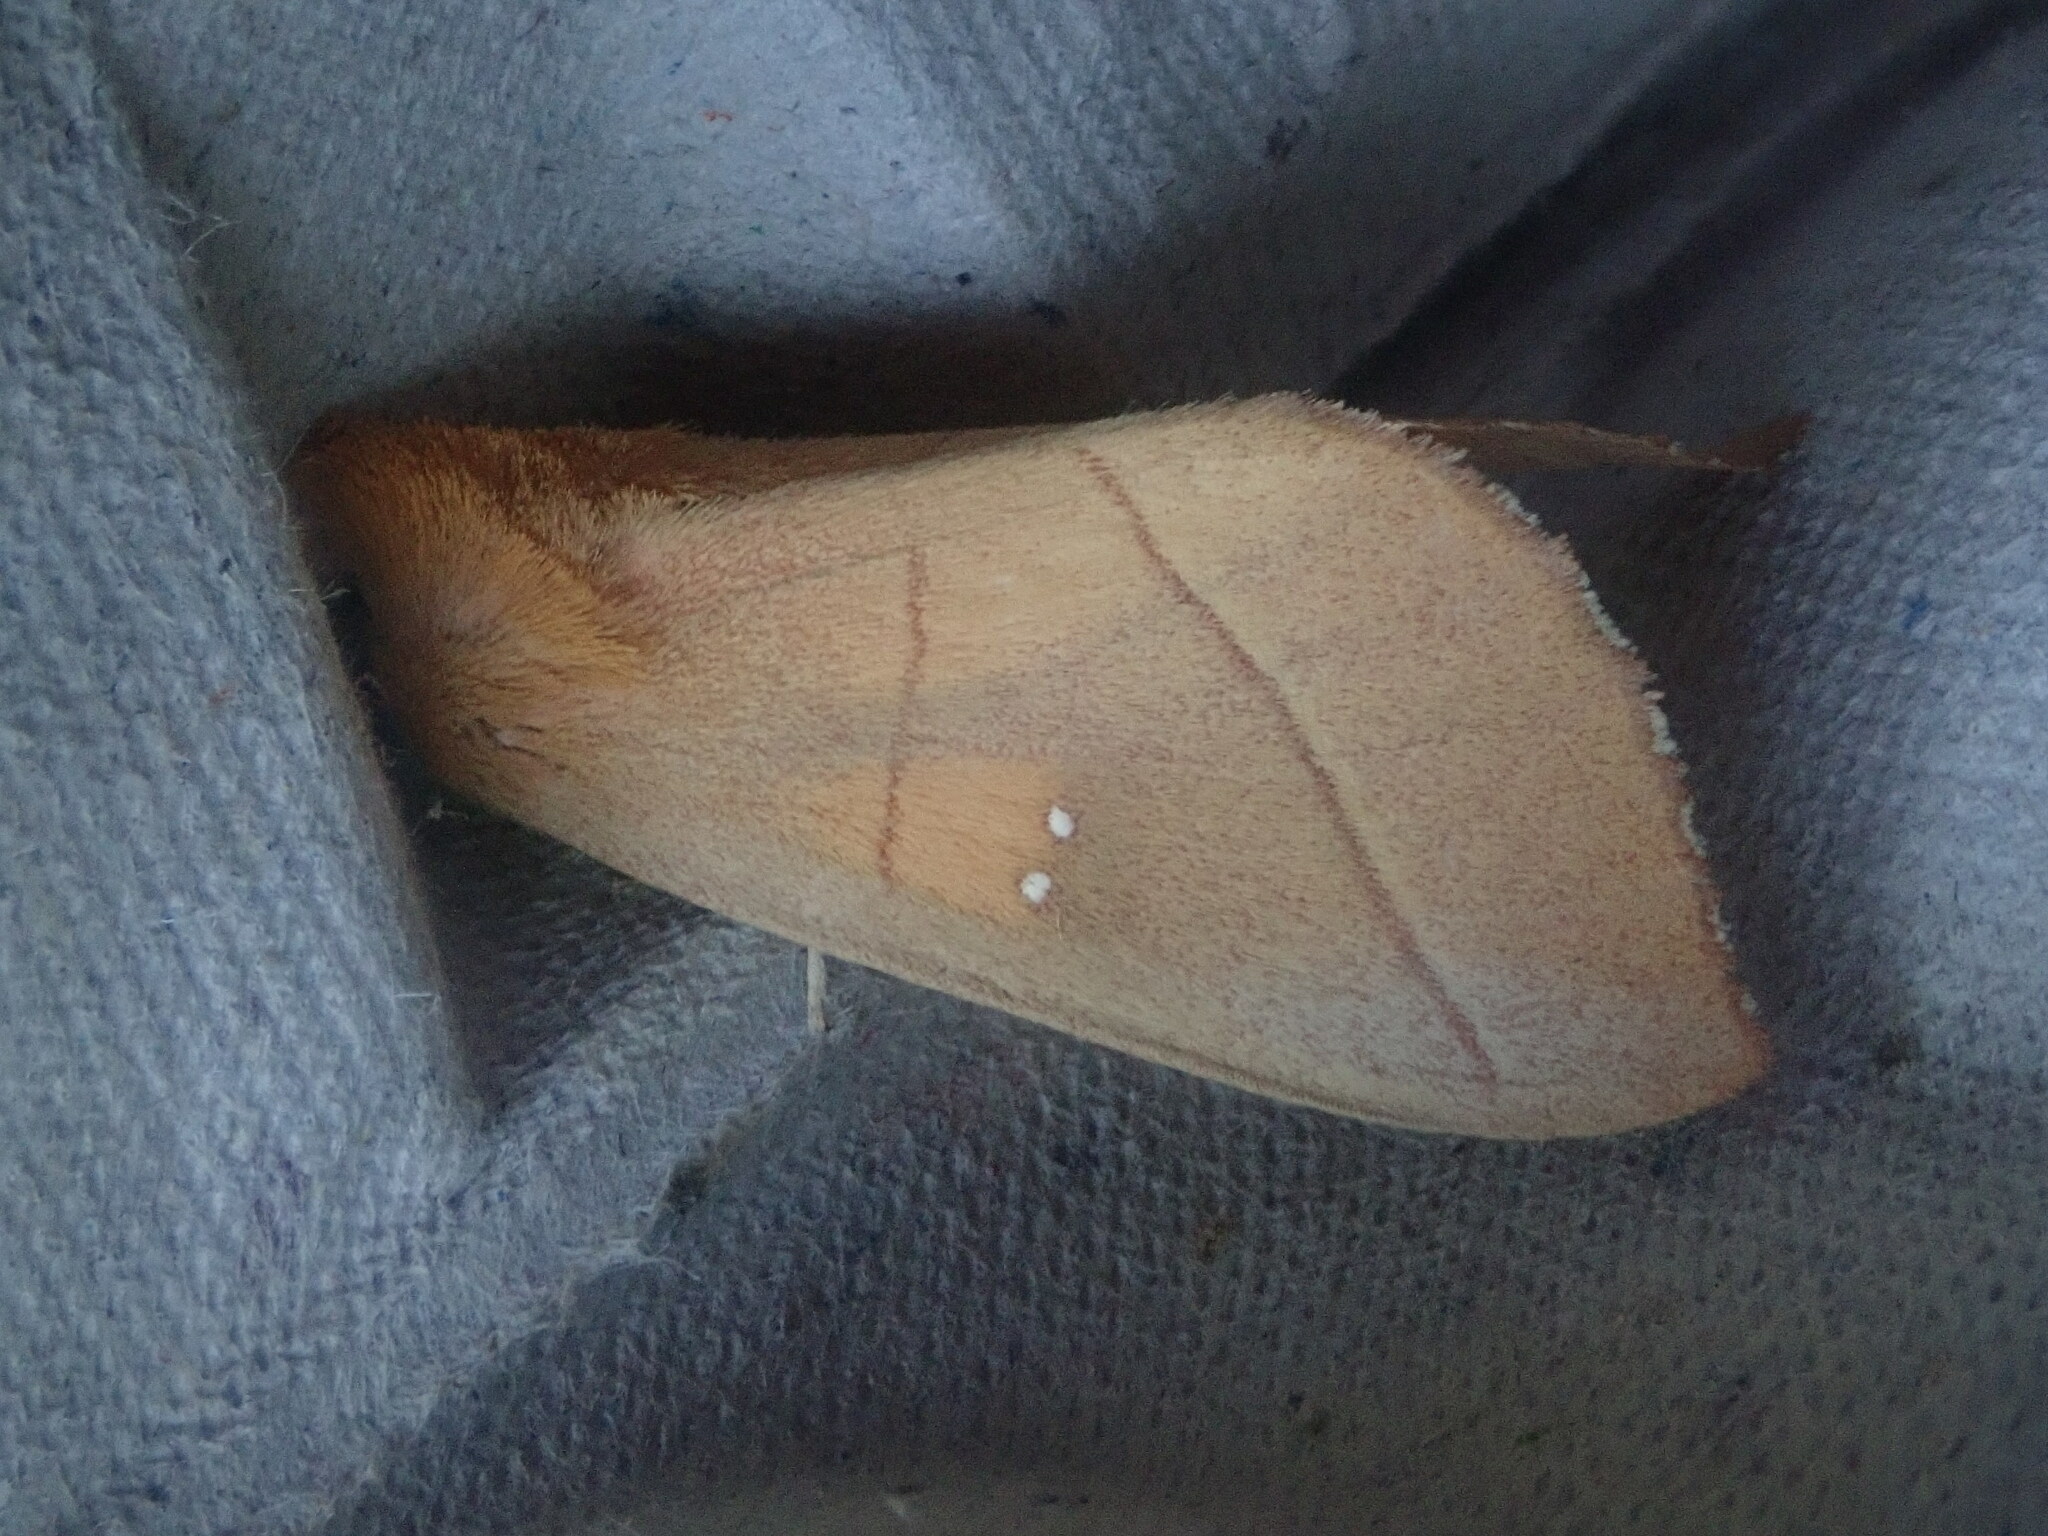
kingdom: Animalia
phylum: Arthropoda
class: Insecta
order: Lepidoptera
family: Notodontidae
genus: Nadata
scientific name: Nadata gibbosa
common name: White-dotted prominent
